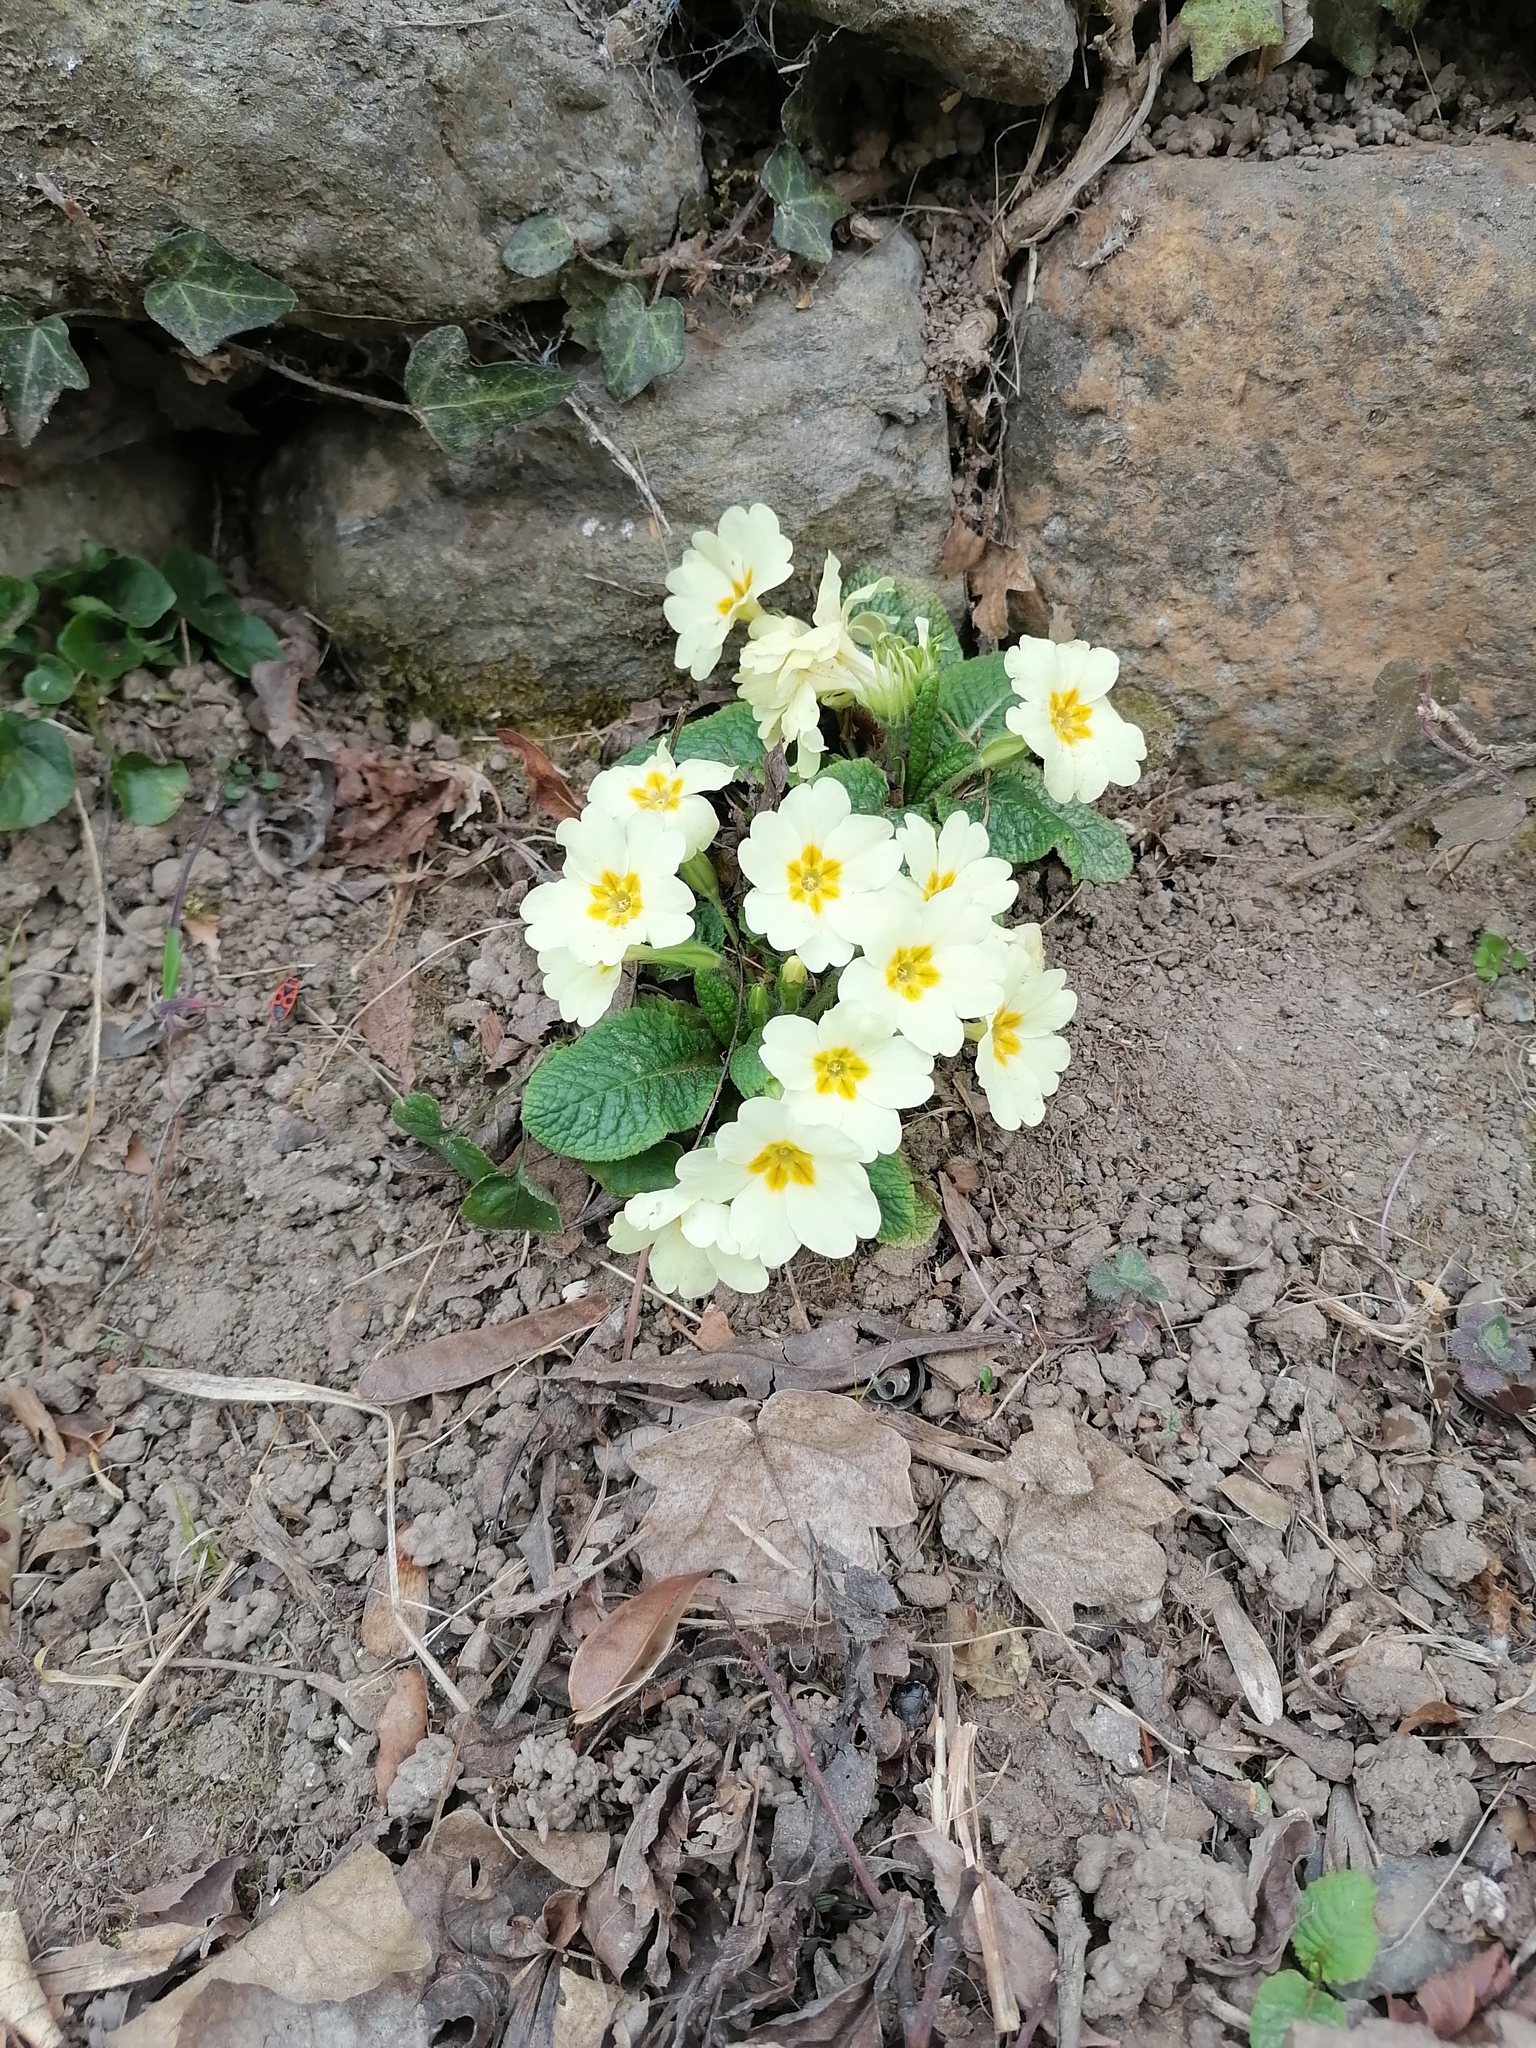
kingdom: Plantae
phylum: Tracheophyta
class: Magnoliopsida
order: Ericales
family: Primulaceae
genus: Primula
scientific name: Primula vulgaris
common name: Primrose
